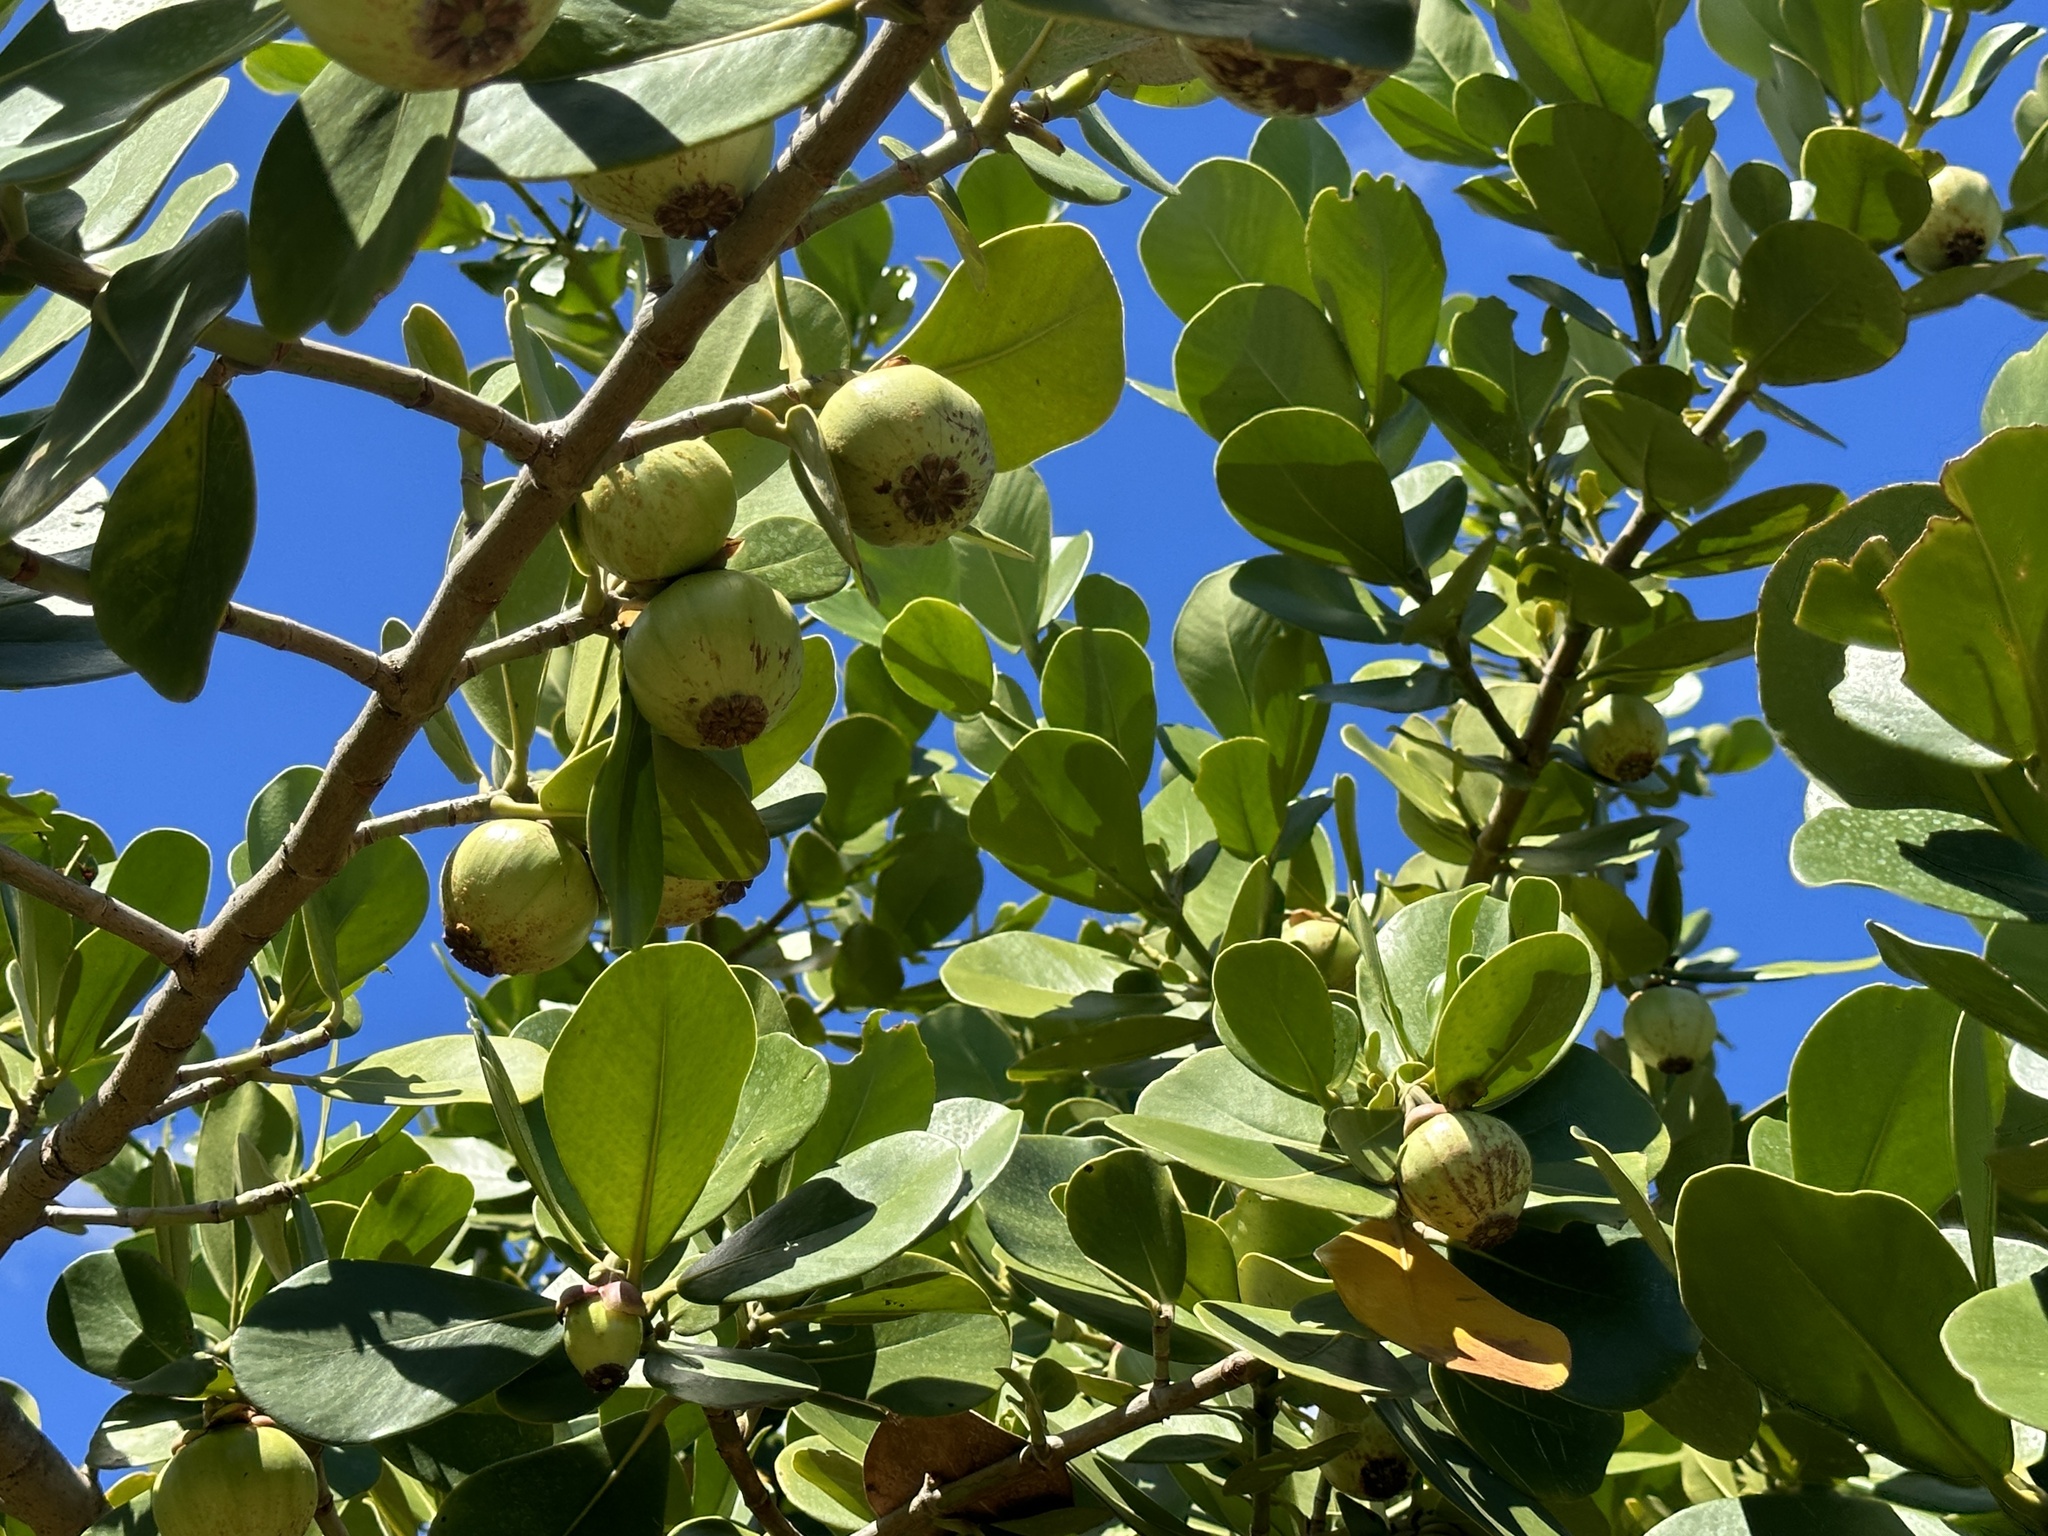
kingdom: Plantae
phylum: Tracheophyta
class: Magnoliopsida
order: Malpighiales
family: Clusiaceae
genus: Clusia
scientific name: Clusia rosea
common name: Scotch attorney
